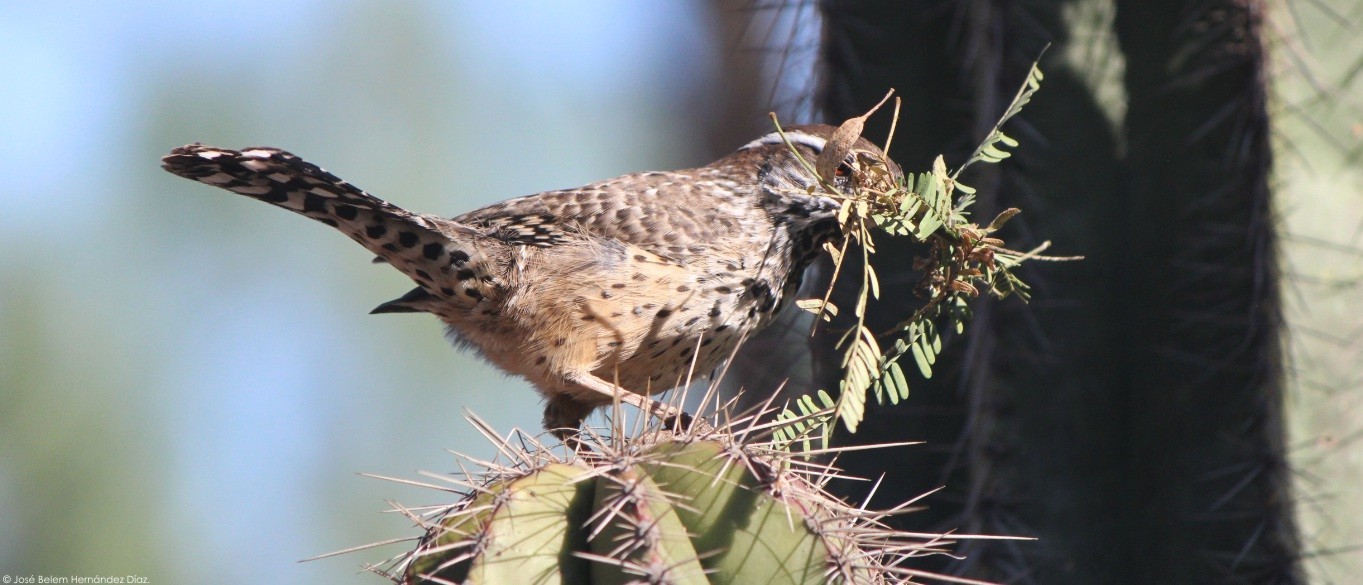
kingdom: Animalia
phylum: Chordata
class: Aves
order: Passeriformes
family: Troglodytidae
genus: Campylorhynchus
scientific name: Campylorhynchus brunneicapillus
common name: Cactus wren
